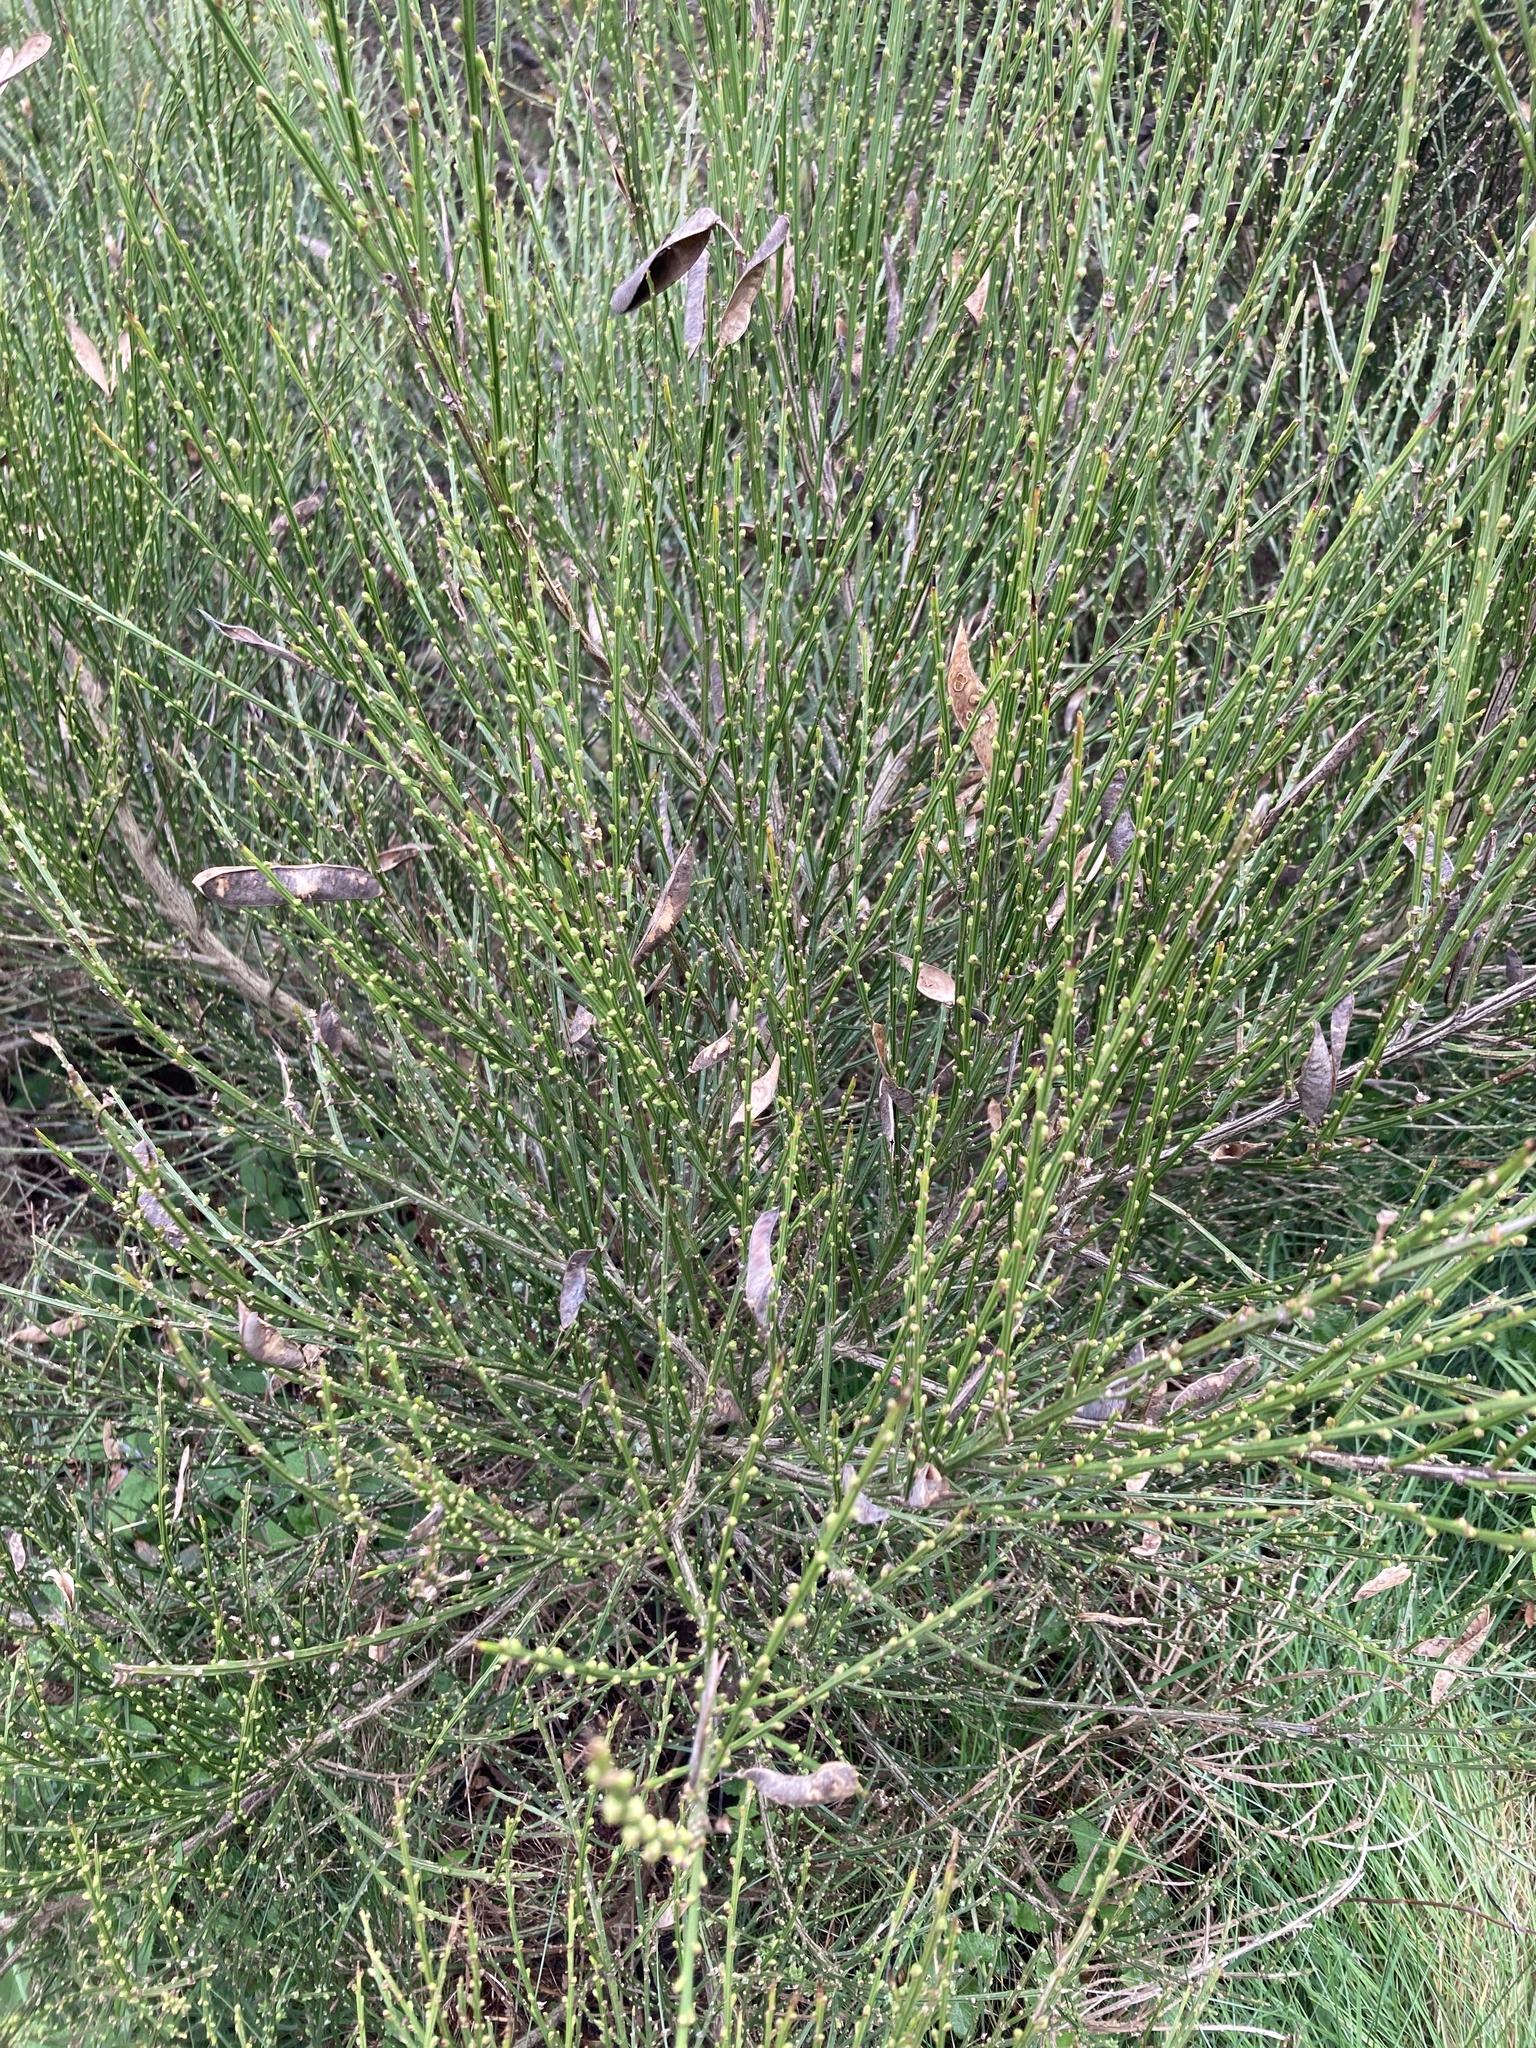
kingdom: Plantae
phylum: Tracheophyta
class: Magnoliopsida
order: Fabales
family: Fabaceae
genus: Cytisus
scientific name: Cytisus scoparius
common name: Scotch broom
